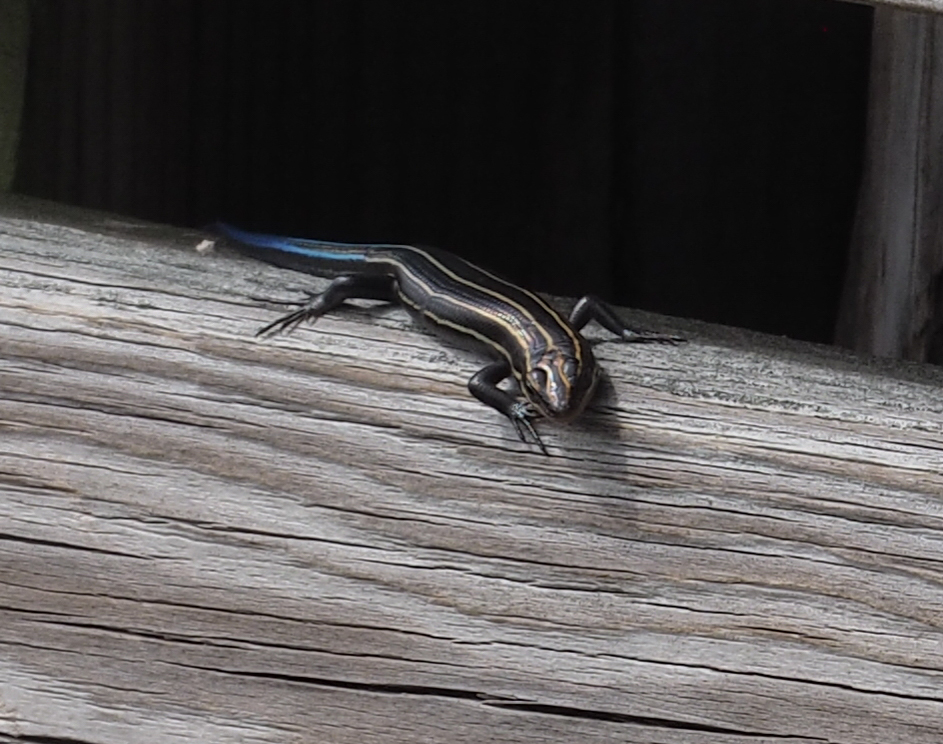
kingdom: Animalia
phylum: Chordata
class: Squamata
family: Scincidae
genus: Plestiodon
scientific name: Plestiodon fasciatus
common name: Five-lined skink
